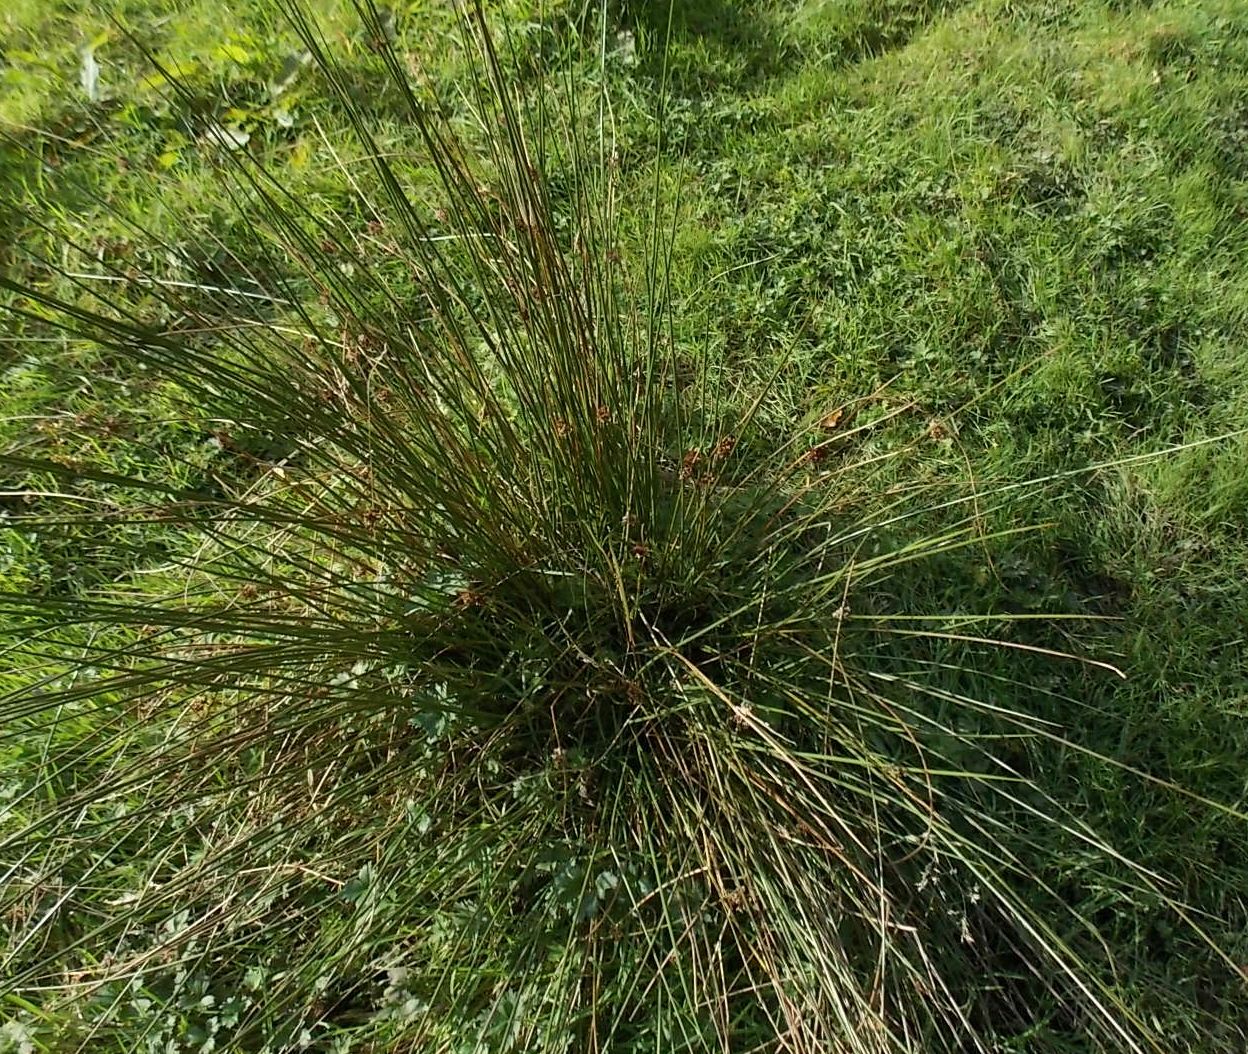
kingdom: Plantae
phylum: Tracheophyta
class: Liliopsida
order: Poales
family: Juncaceae
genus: Juncus
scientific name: Juncus effusus
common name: Soft rush
